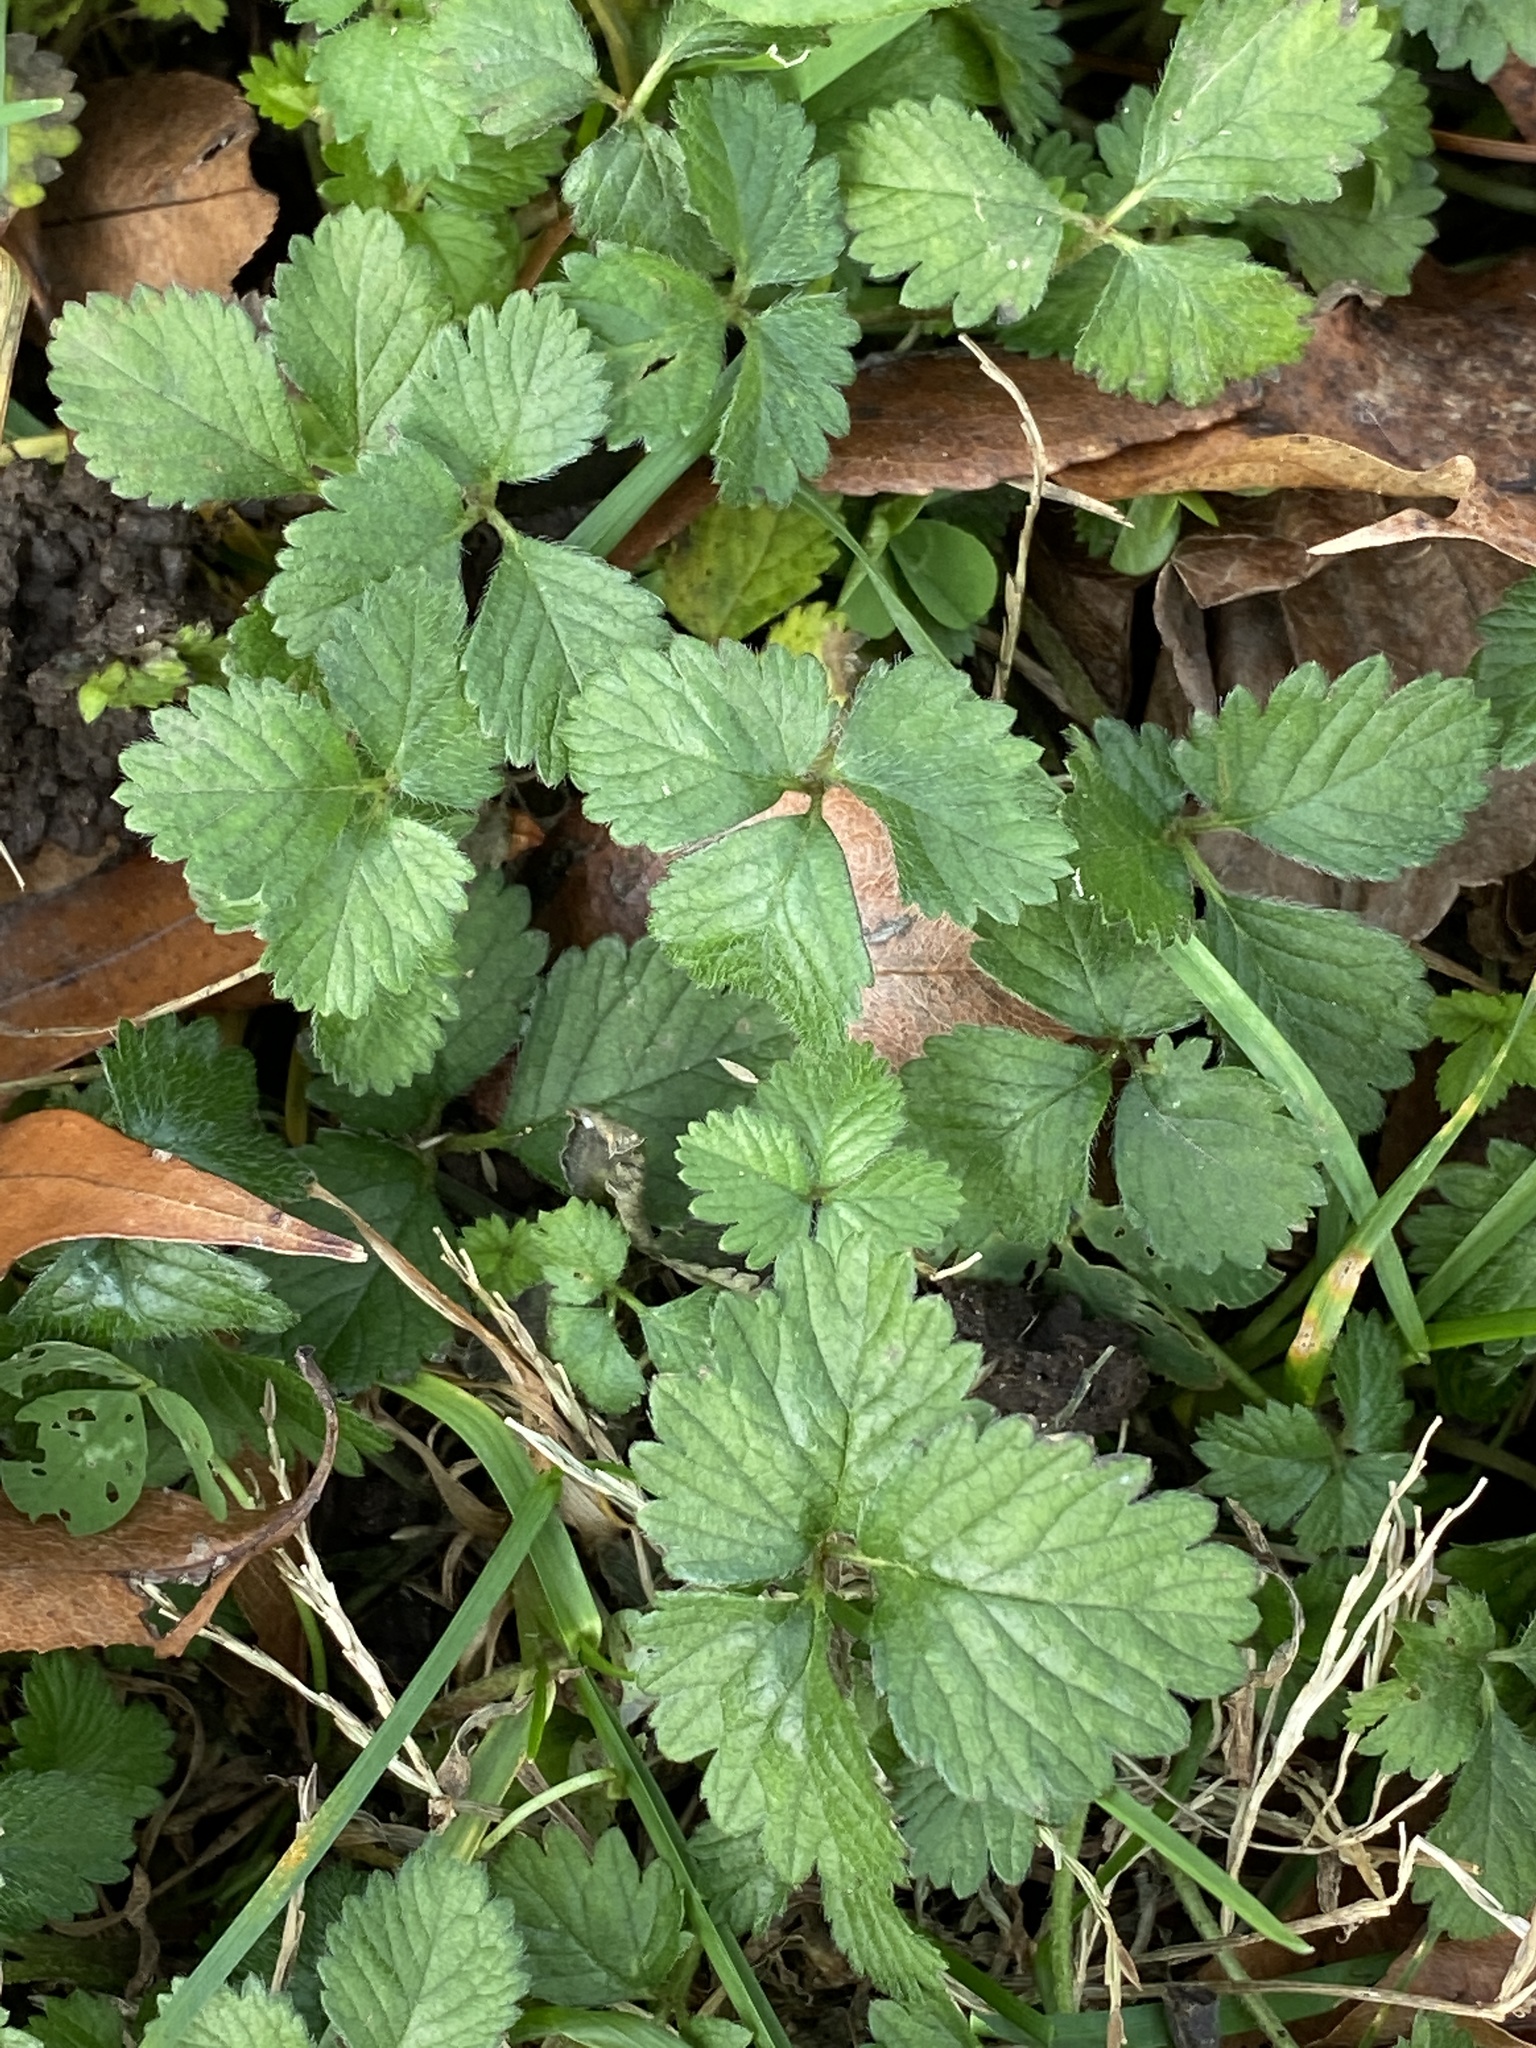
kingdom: Plantae
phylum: Tracheophyta
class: Magnoliopsida
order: Rosales
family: Rosaceae
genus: Potentilla
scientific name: Potentilla indica
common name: Yellow-flowered strawberry
